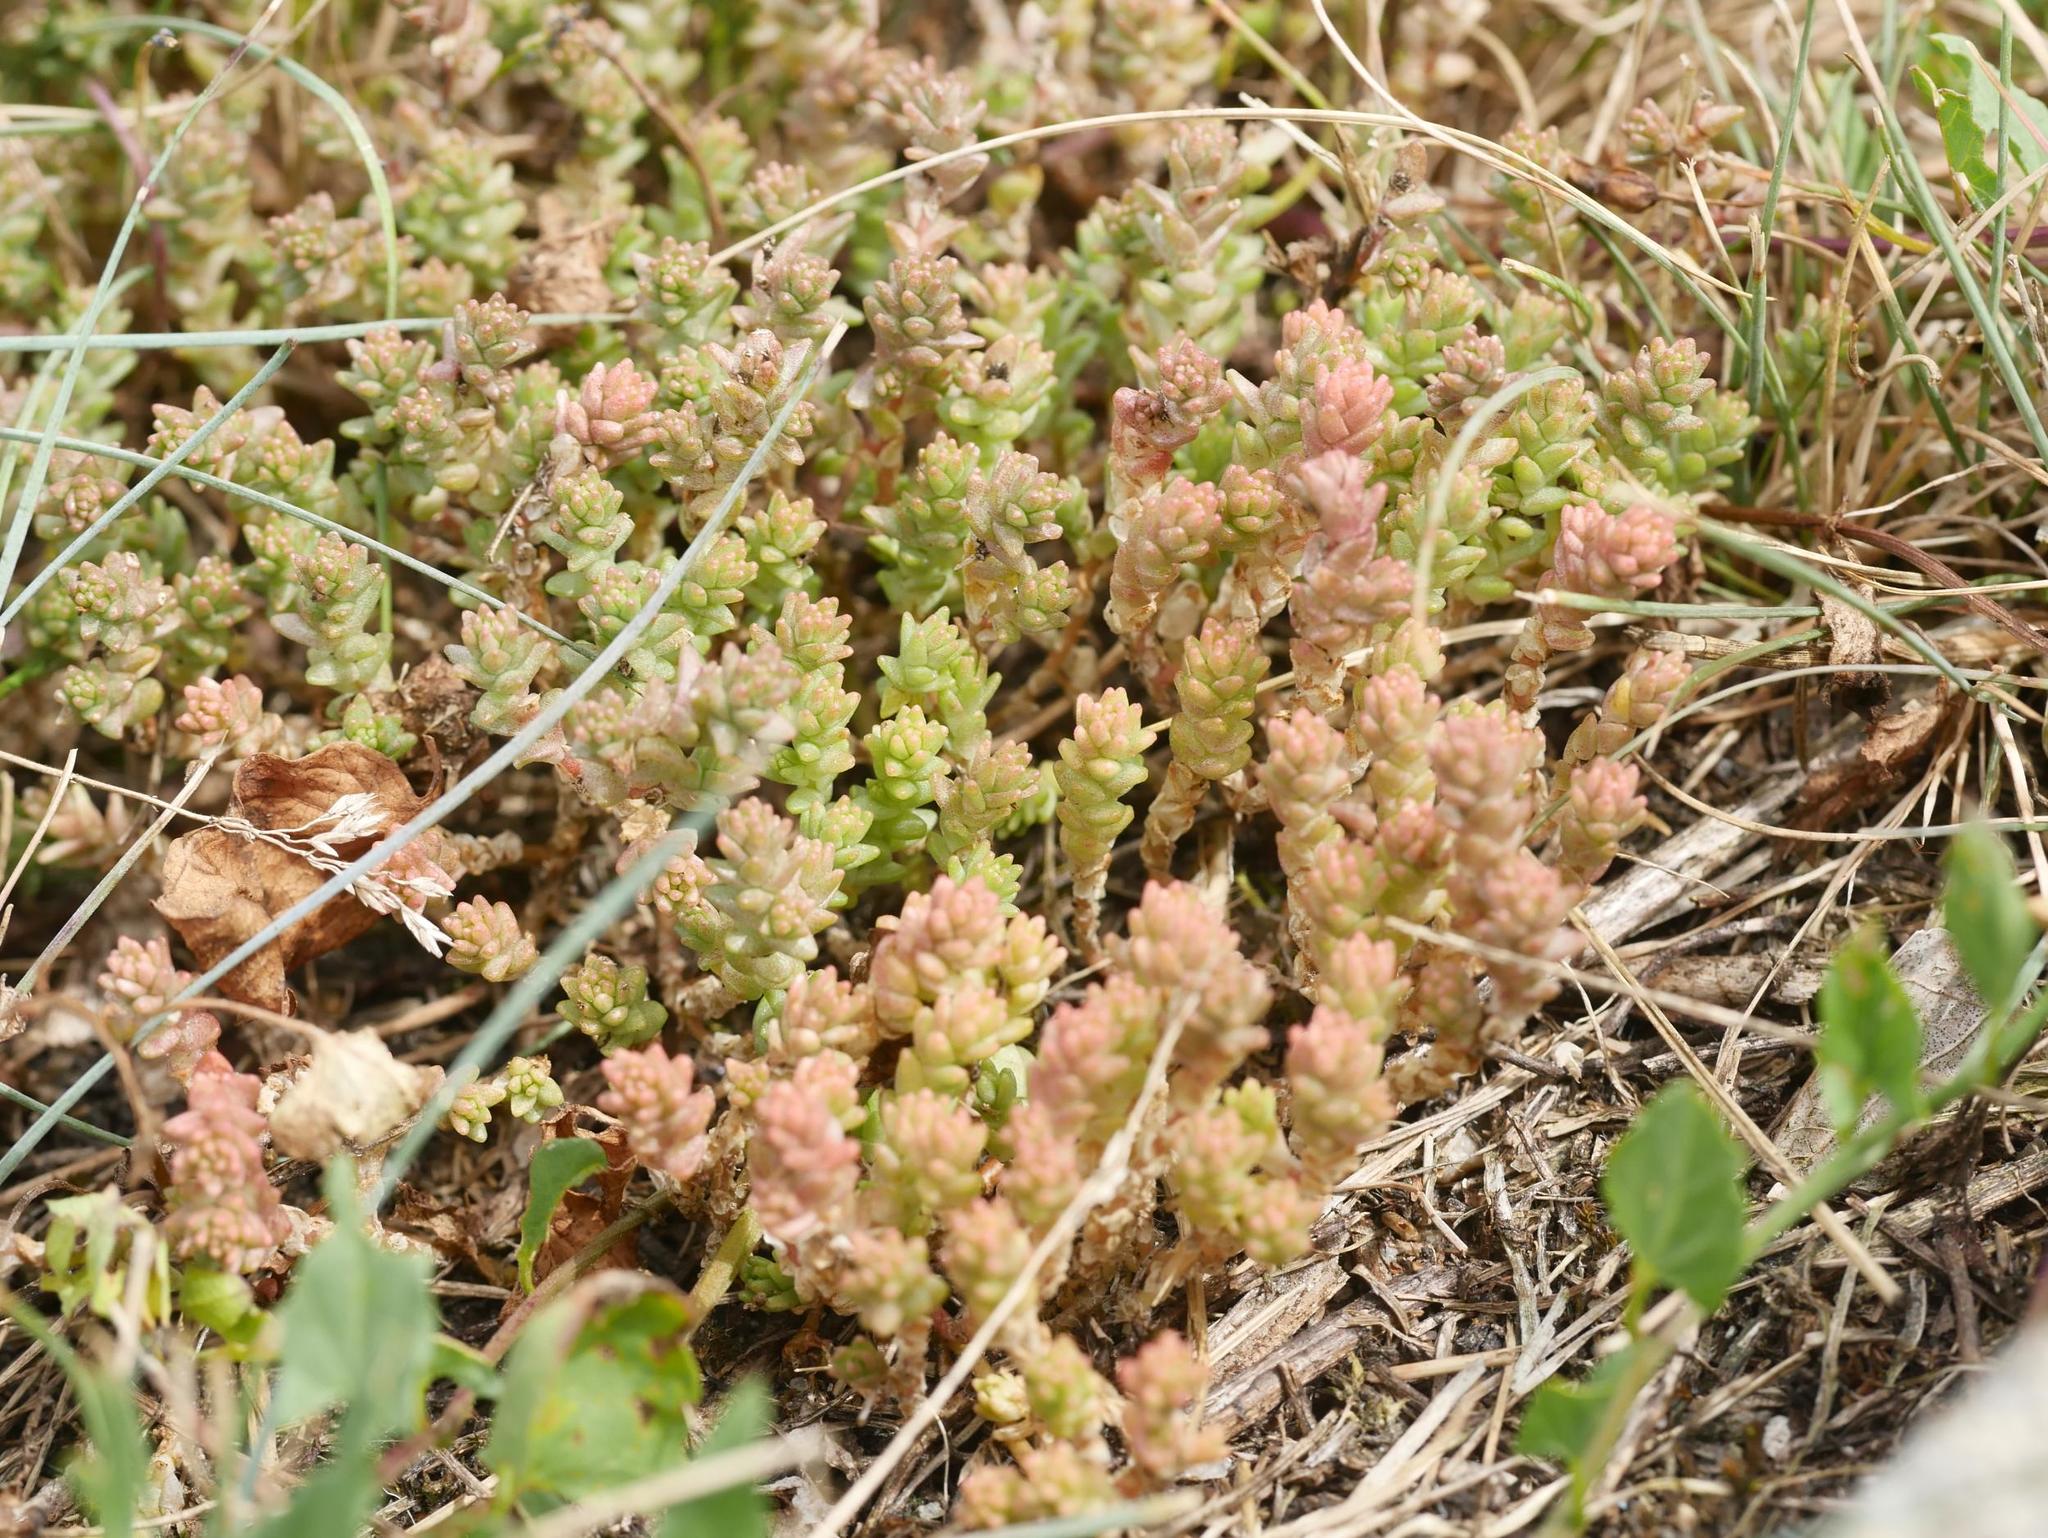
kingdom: Plantae
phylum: Tracheophyta
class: Magnoliopsida
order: Saxifragales
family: Crassulaceae
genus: Sedum
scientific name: Sedum acre
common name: Biting stonecrop
